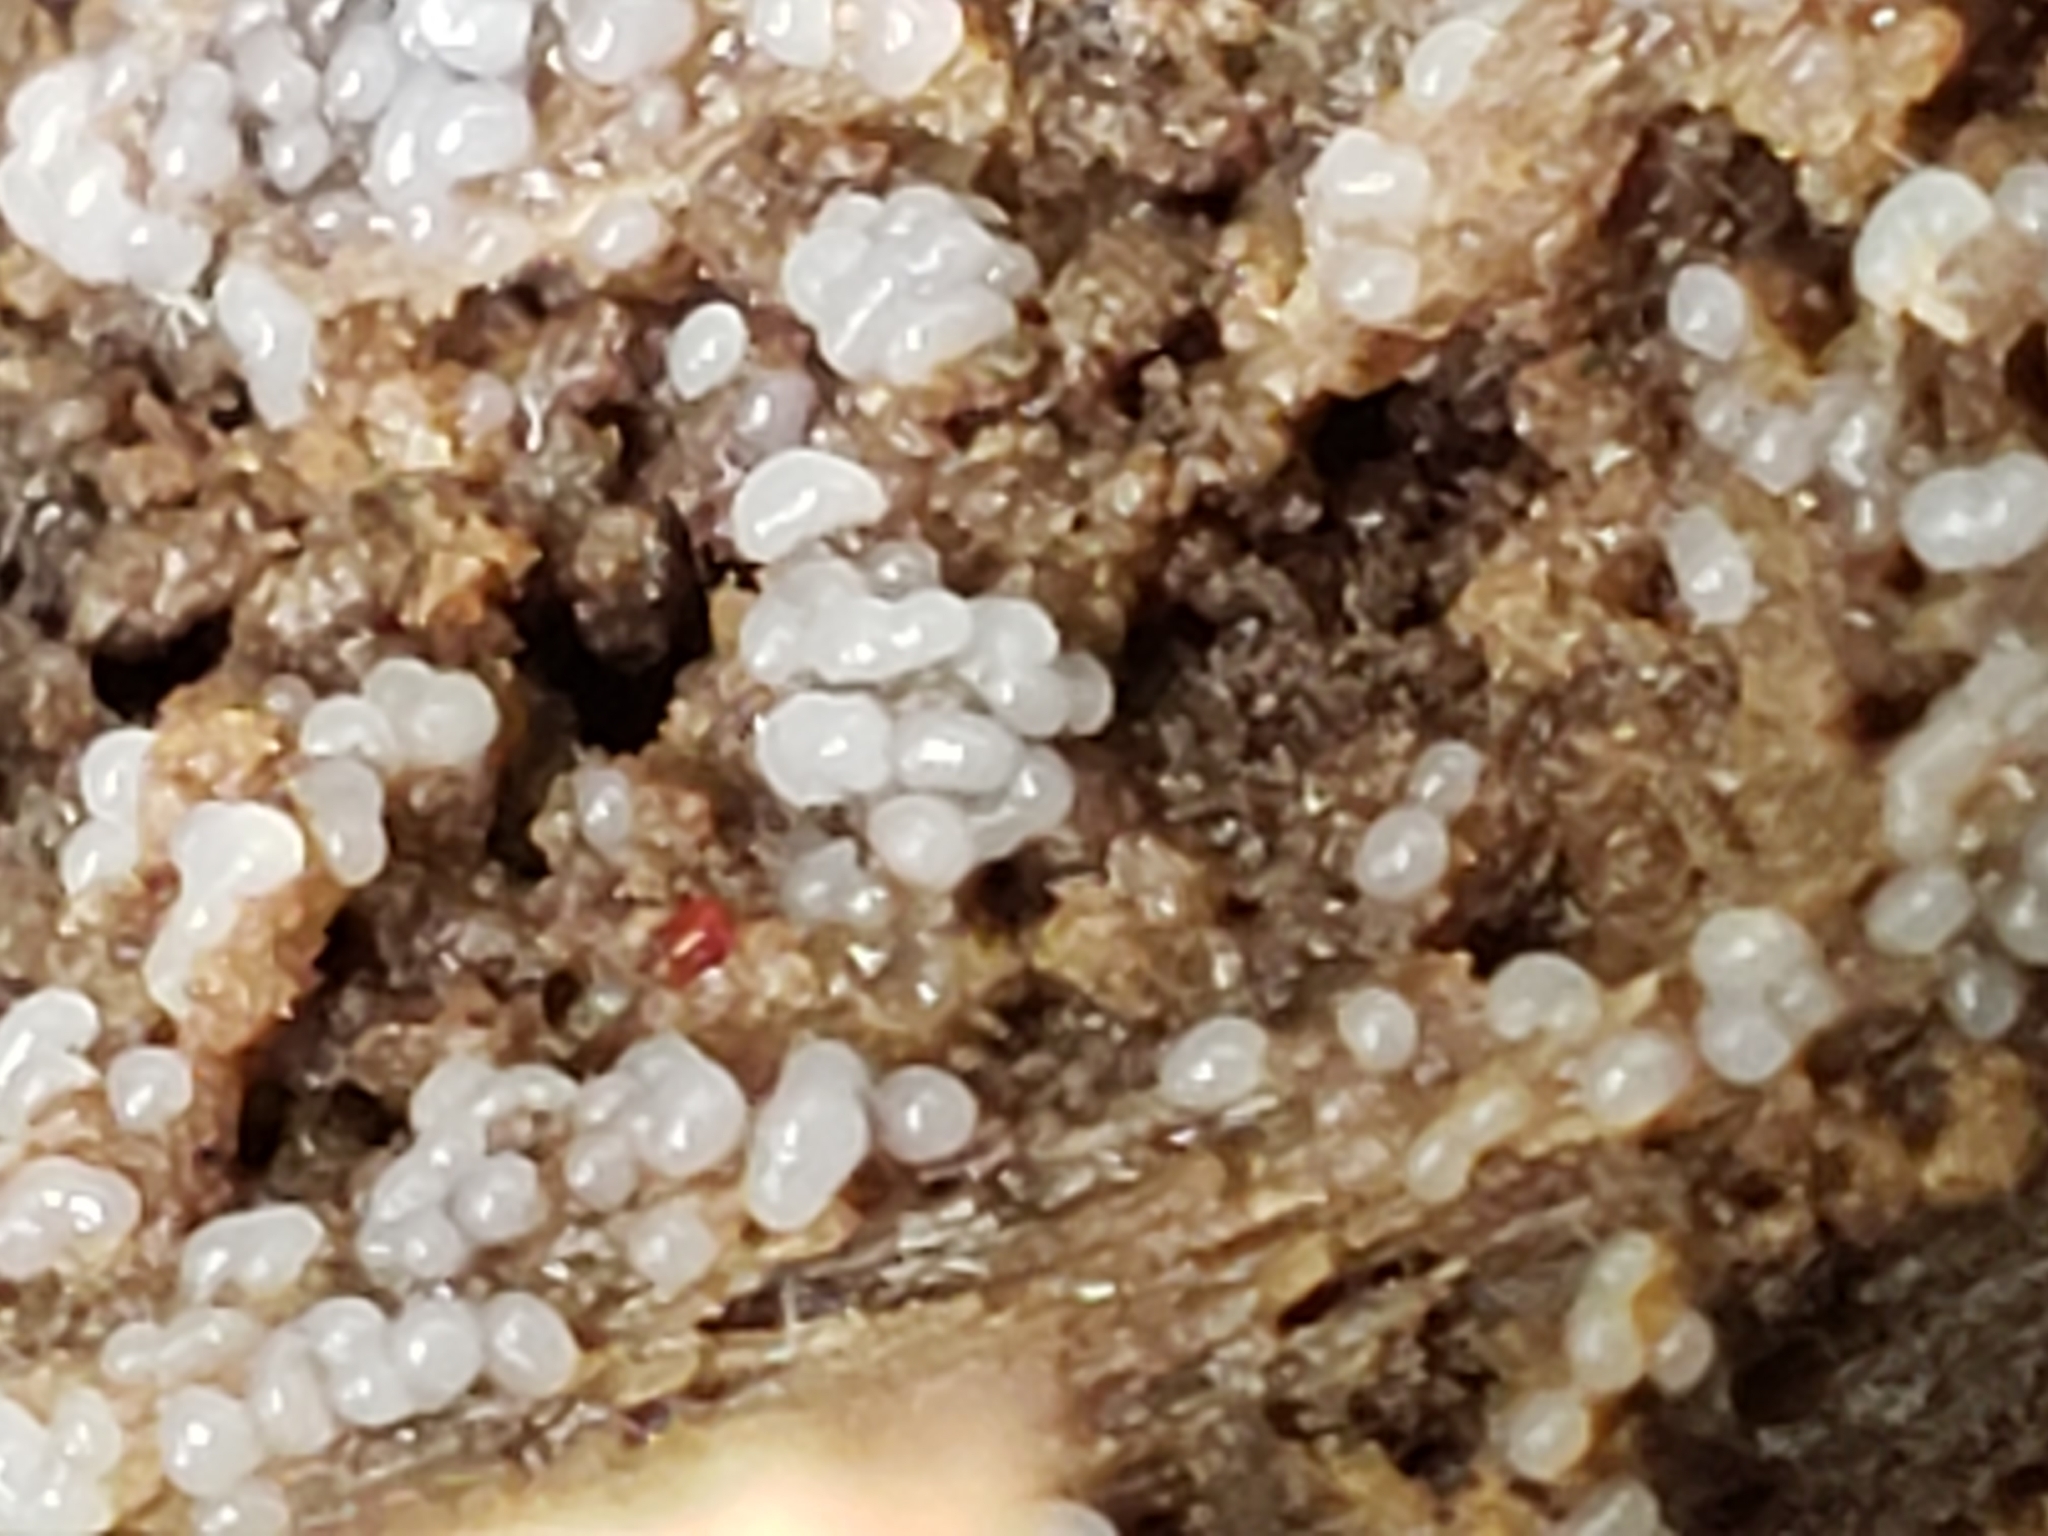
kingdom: Protozoa
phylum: Mycetozoa
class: Protosteliomycetes
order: Ceratiomyxales
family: Ceratiomyxaceae
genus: Ceratiomyxa
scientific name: Ceratiomyxa fruticulosa
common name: Honeycomb coral slime mold
